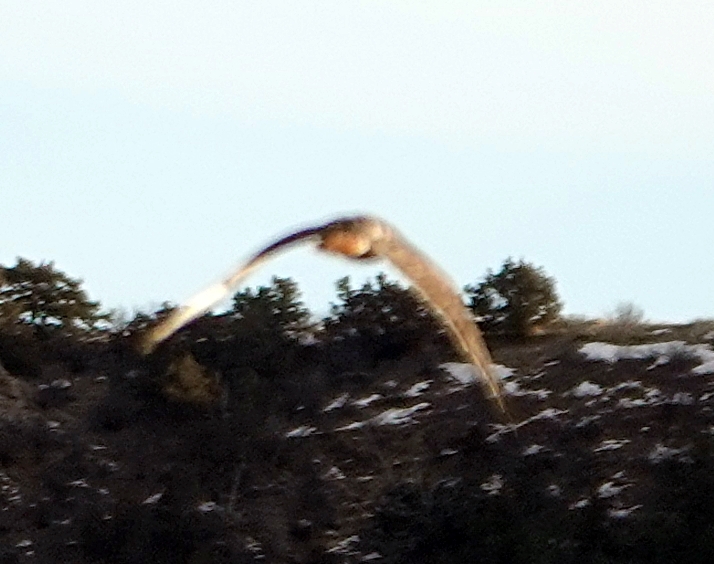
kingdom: Animalia
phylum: Chordata
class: Aves
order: Accipitriformes
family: Accipitridae
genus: Buteo
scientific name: Buteo jamaicensis
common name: Red-tailed hawk
